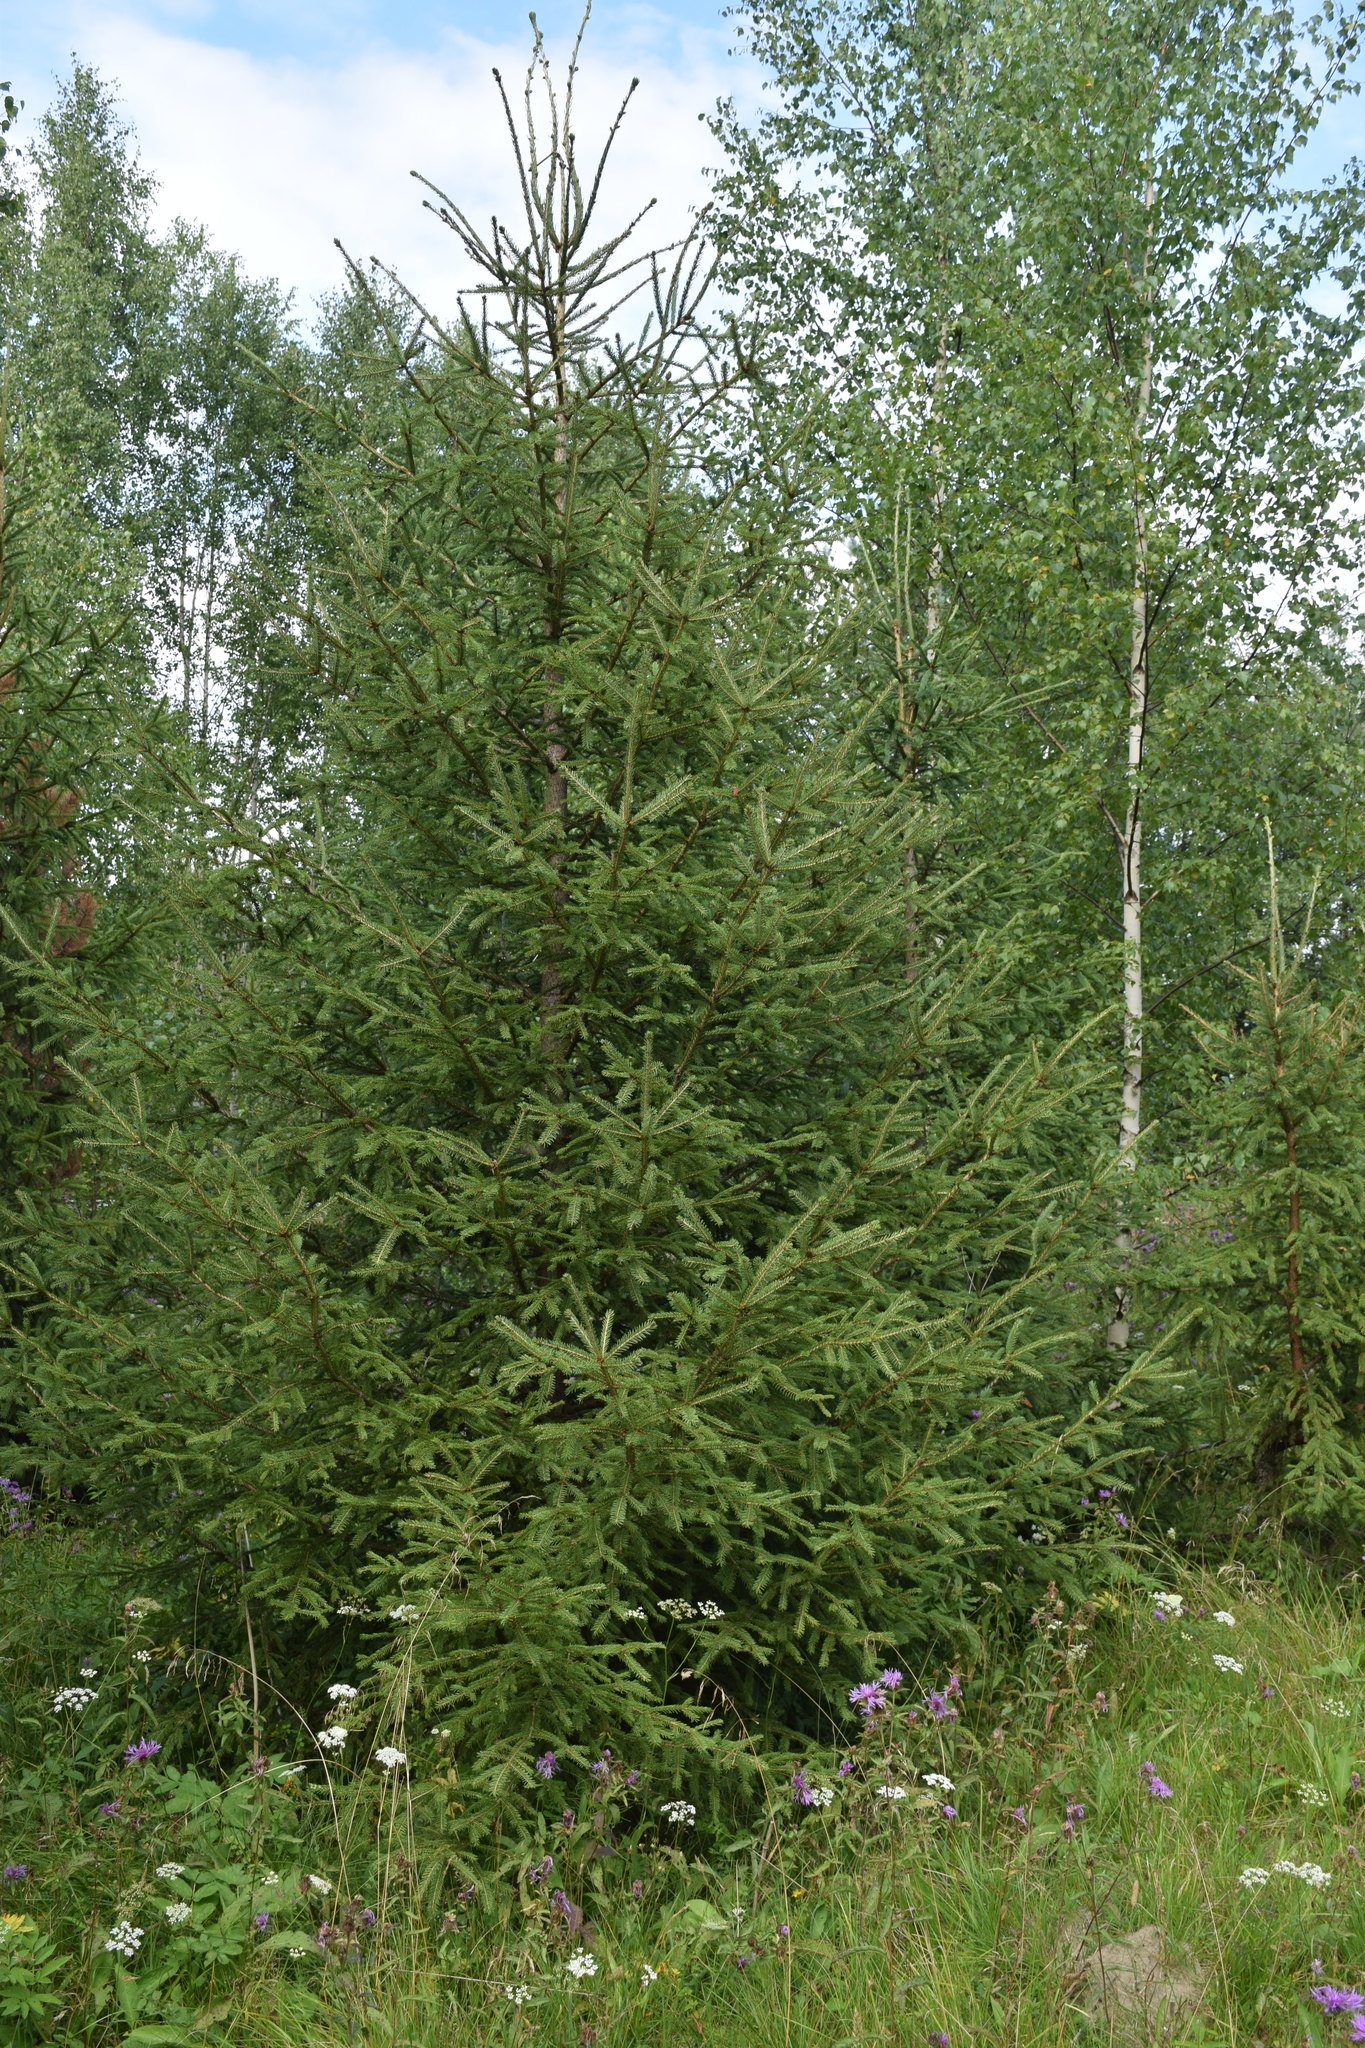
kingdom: Plantae
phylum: Tracheophyta
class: Pinopsida
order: Pinales
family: Pinaceae
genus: Picea
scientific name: Picea abies
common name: Norway spruce
